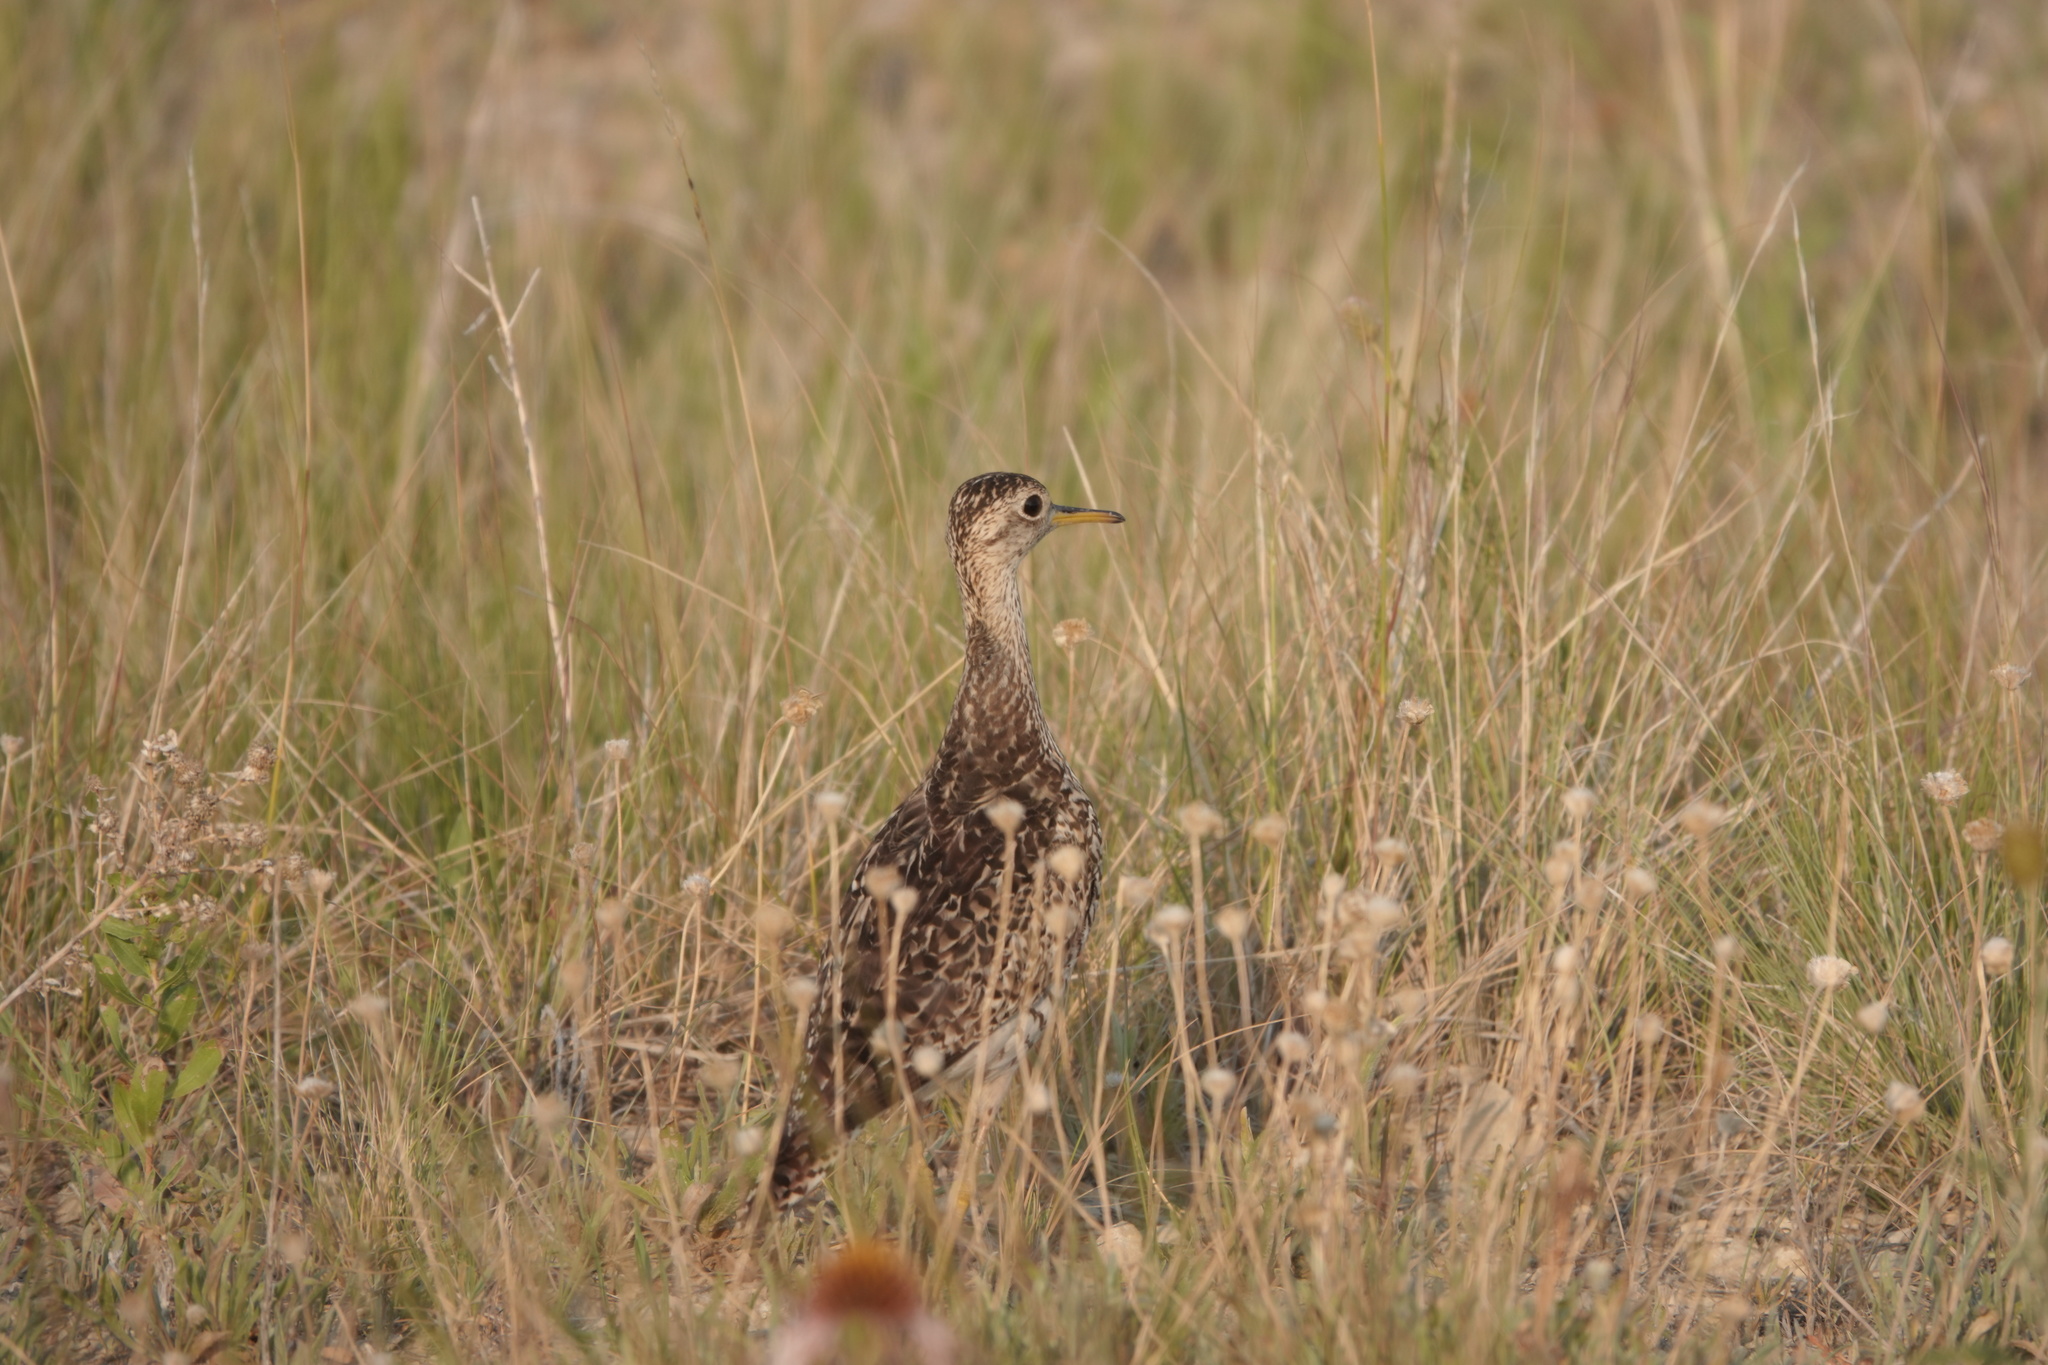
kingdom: Animalia
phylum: Chordata
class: Aves
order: Charadriiformes
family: Scolopacidae
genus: Bartramia
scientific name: Bartramia longicauda
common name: Upland sandpiper
